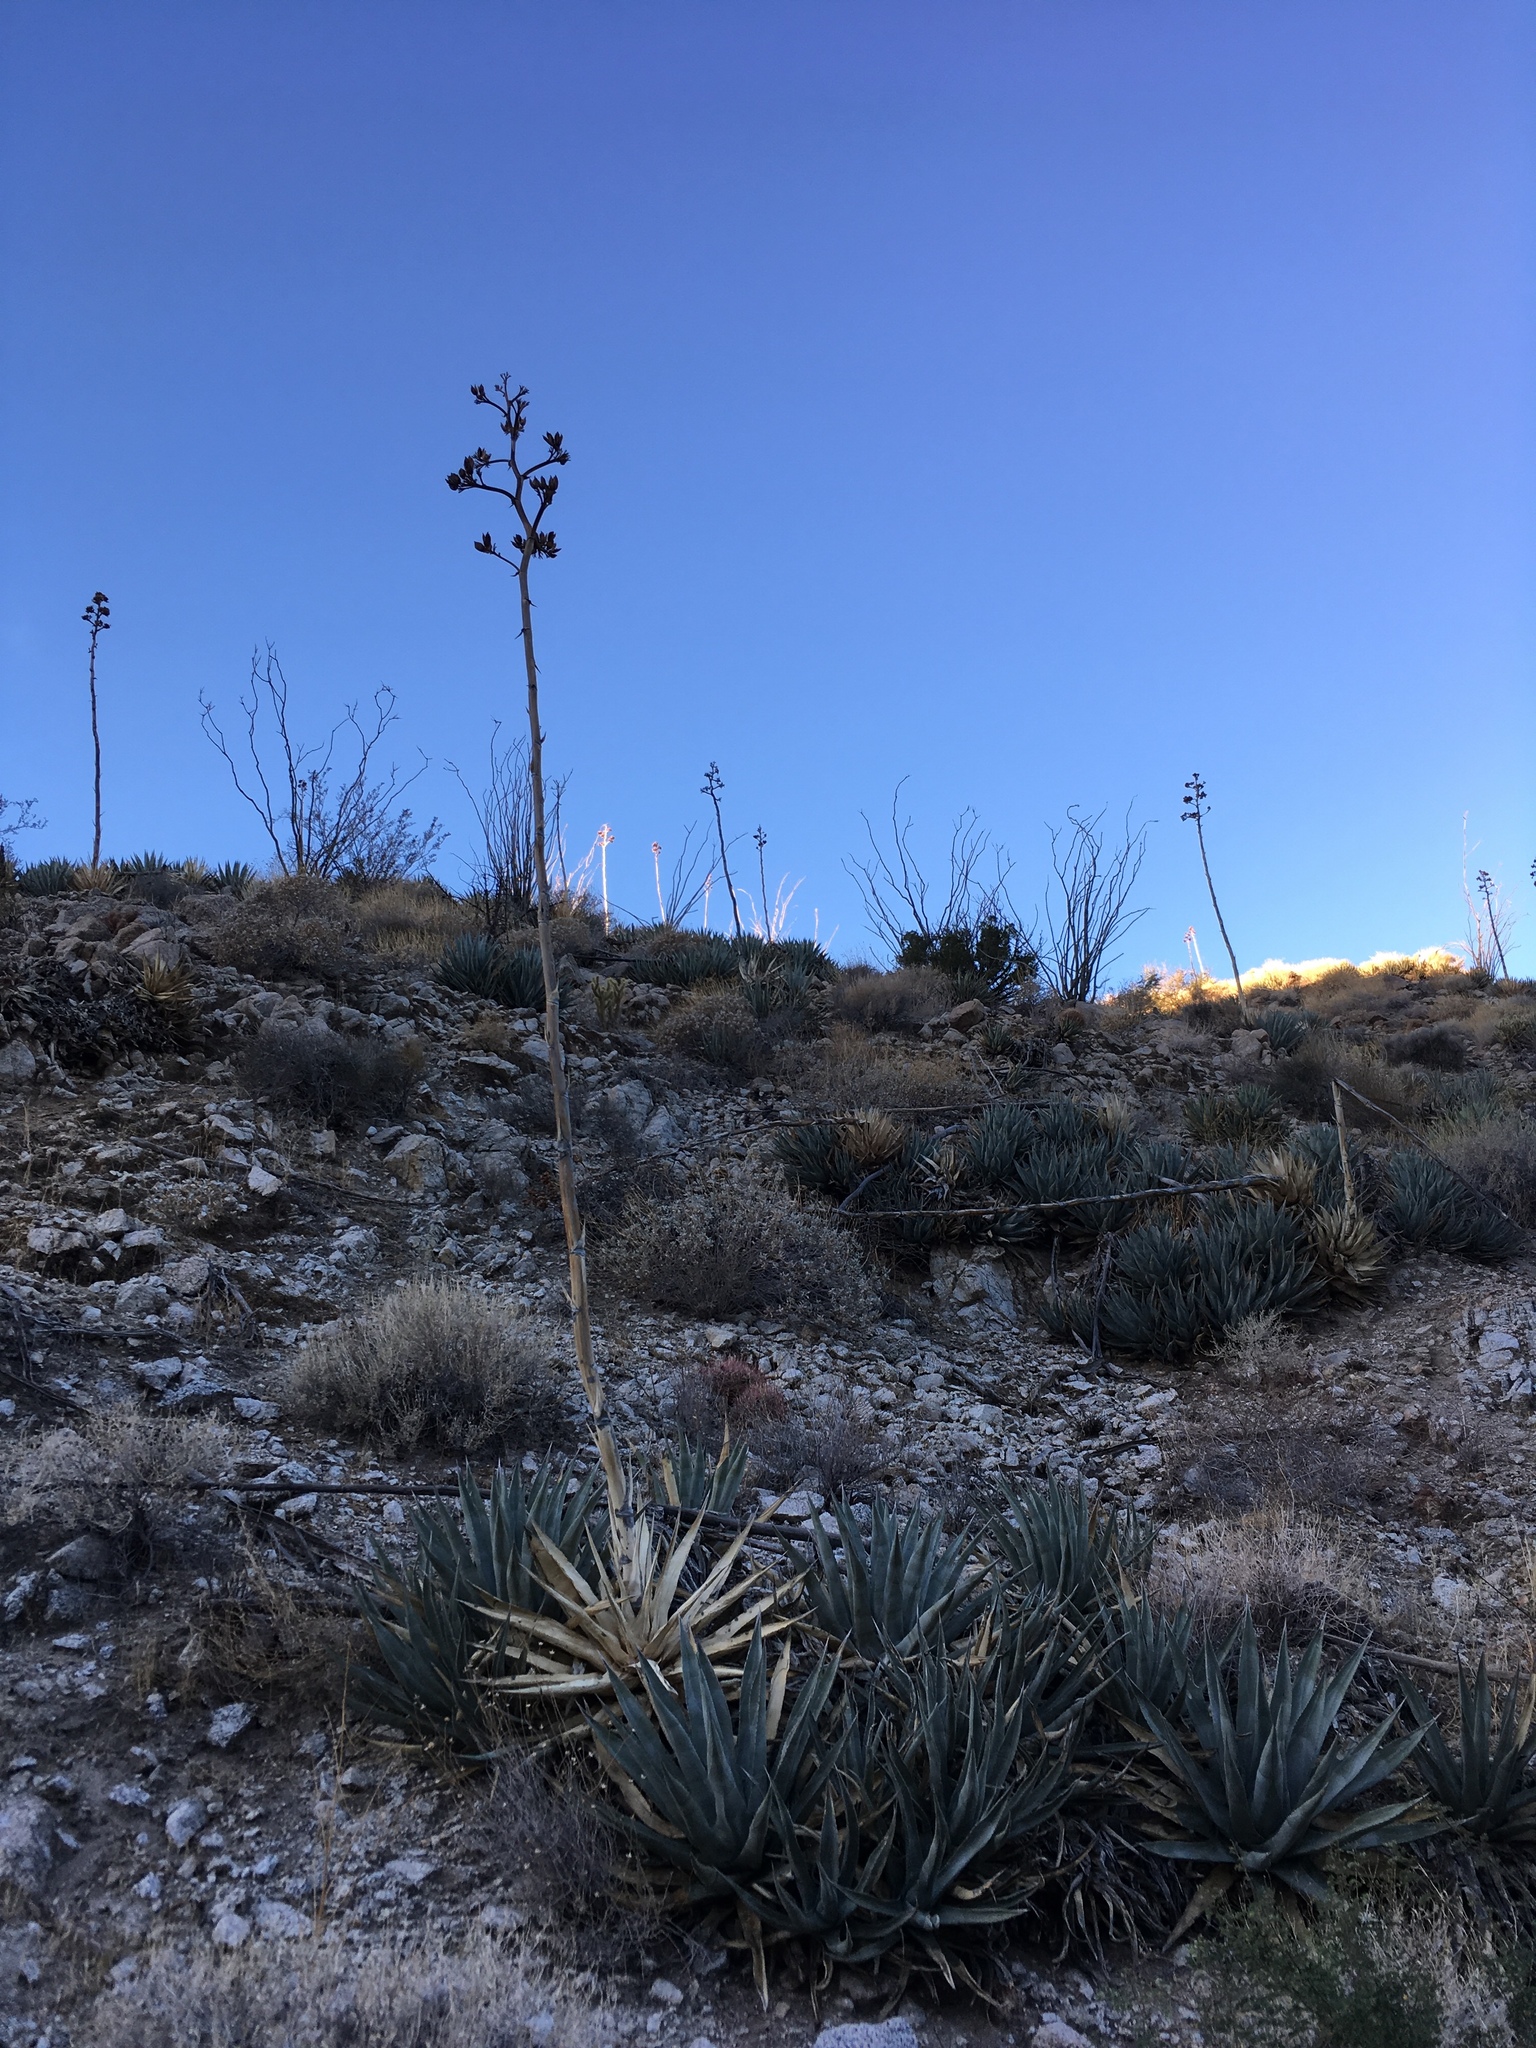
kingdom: Plantae
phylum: Tracheophyta
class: Liliopsida
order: Asparagales
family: Asparagaceae
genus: Agave
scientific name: Agave deserti
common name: Desert agave
